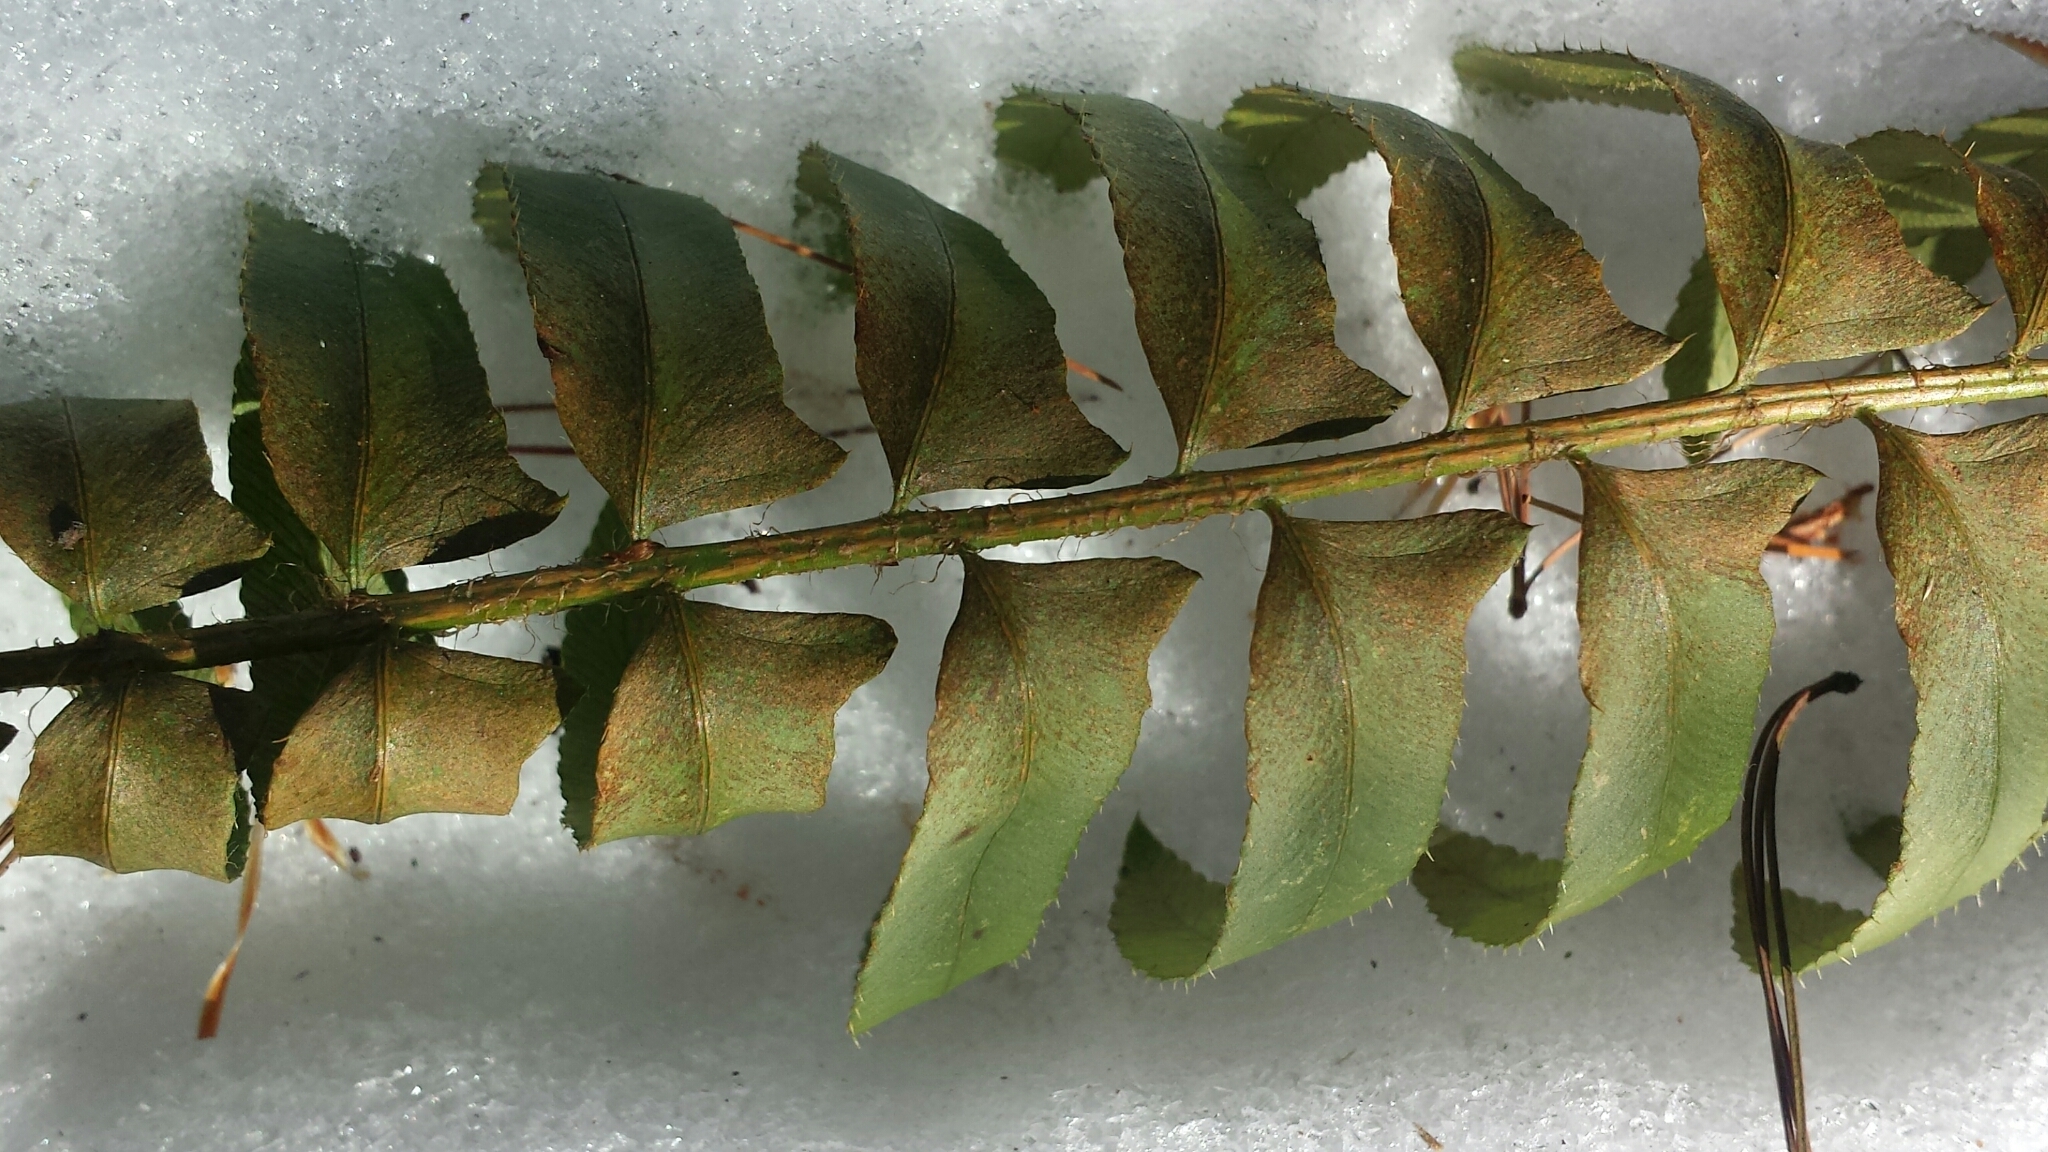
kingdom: Plantae
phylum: Tracheophyta
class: Polypodiopsida
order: Polypodiales
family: Dryopteridaceae
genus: Polystichum
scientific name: Polystichum acrostichoides
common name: Christmas fern
